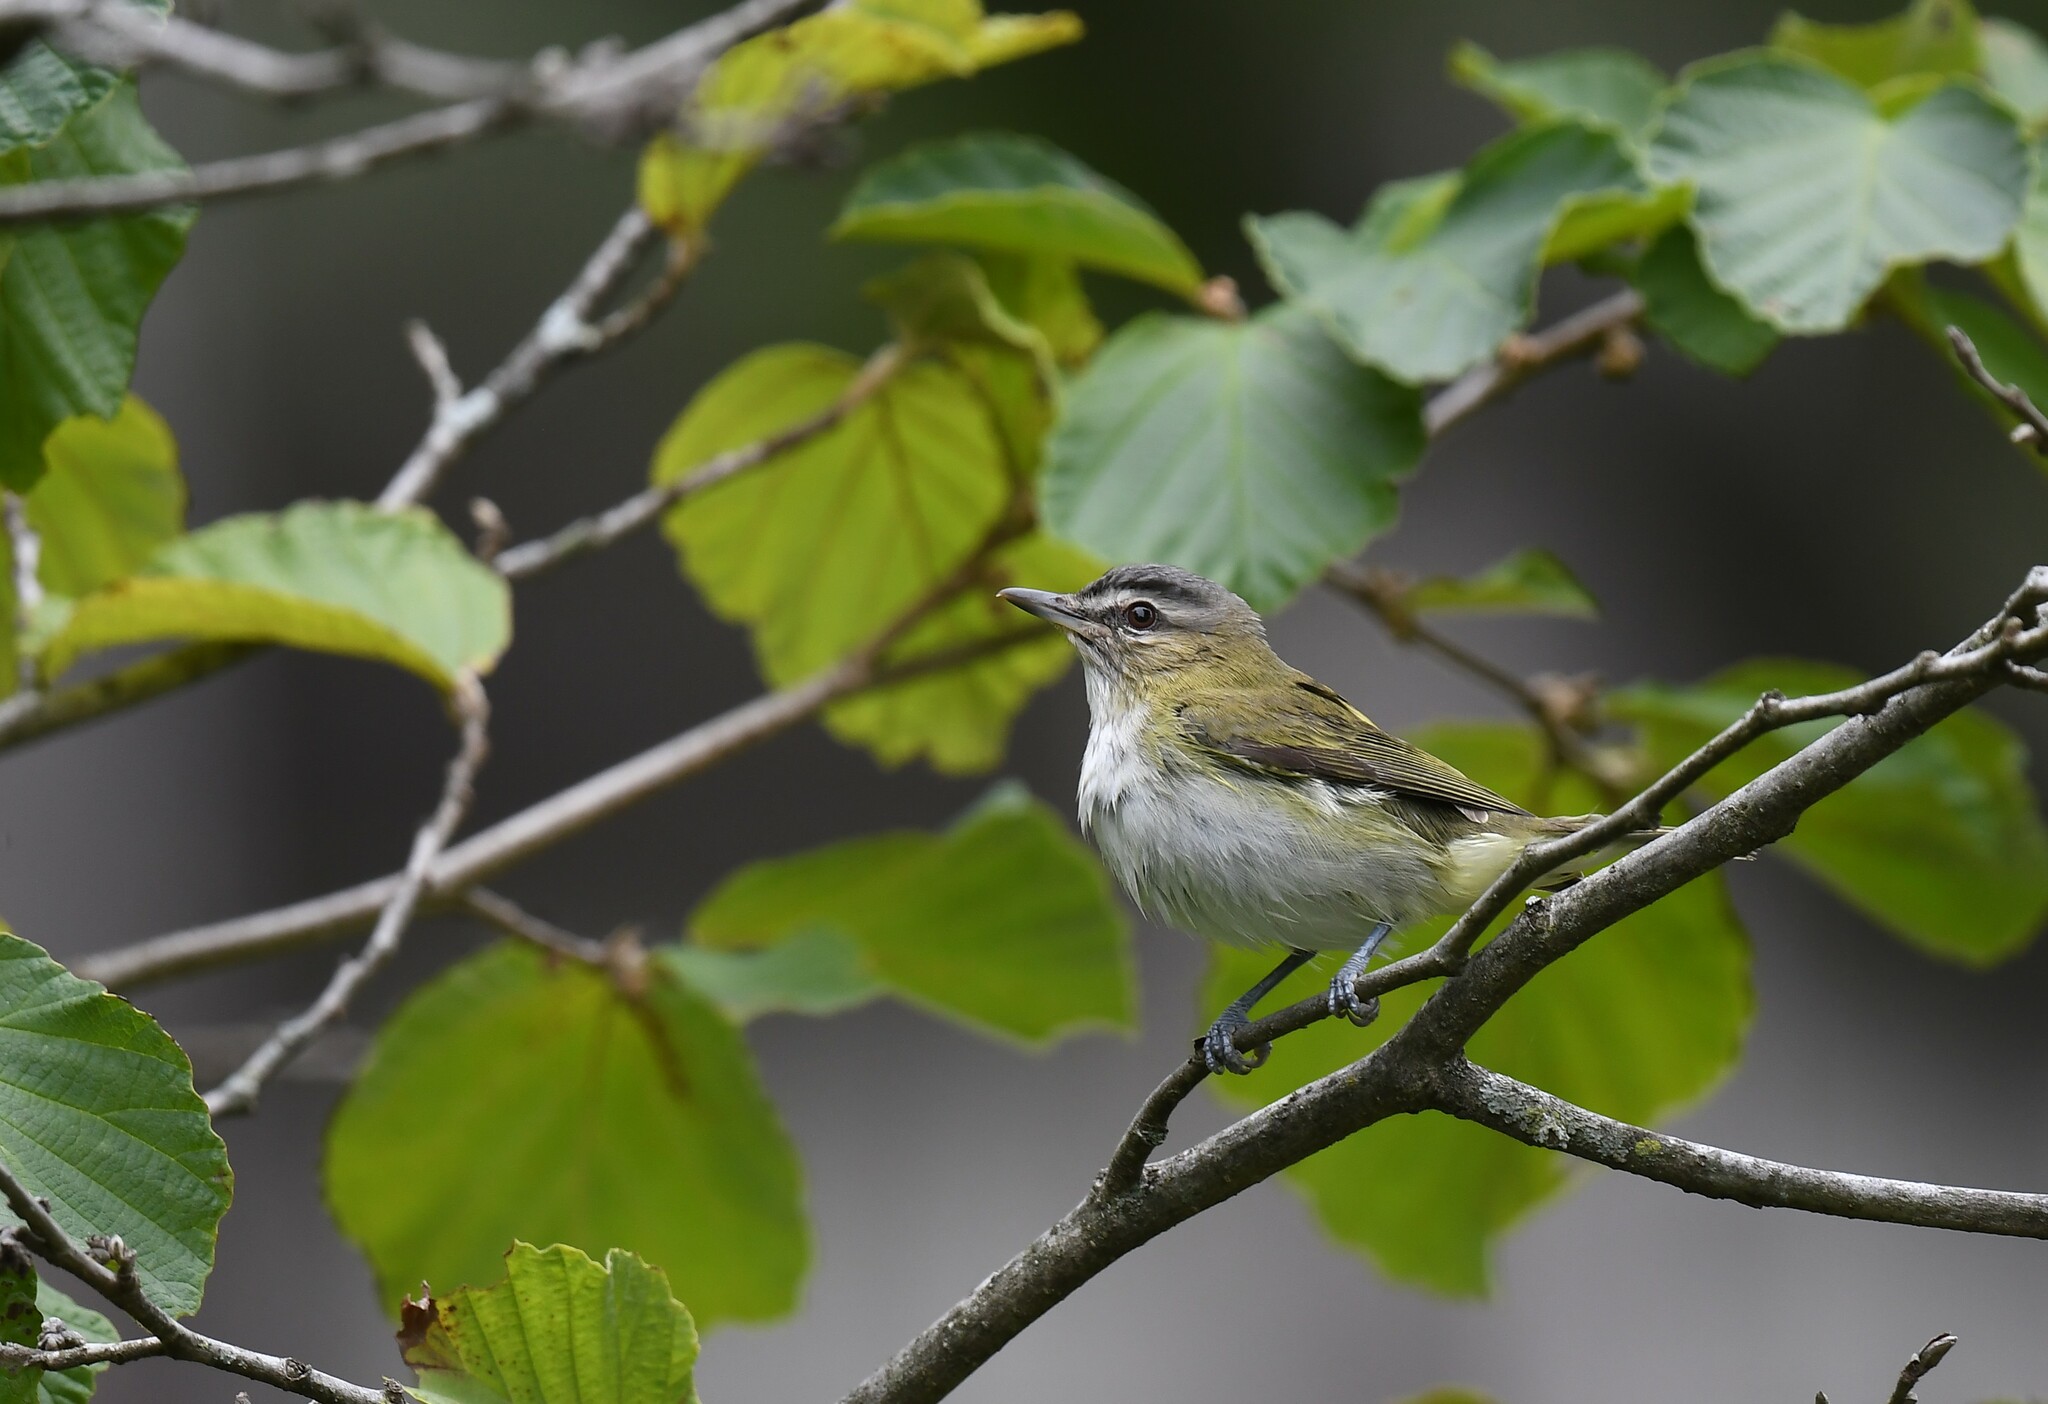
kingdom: Animalia
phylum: Chordata
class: Aves
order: Passeriformes
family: Vireonidae
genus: Vireo
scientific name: Vireo olivaceus
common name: Red-eyed vireo
